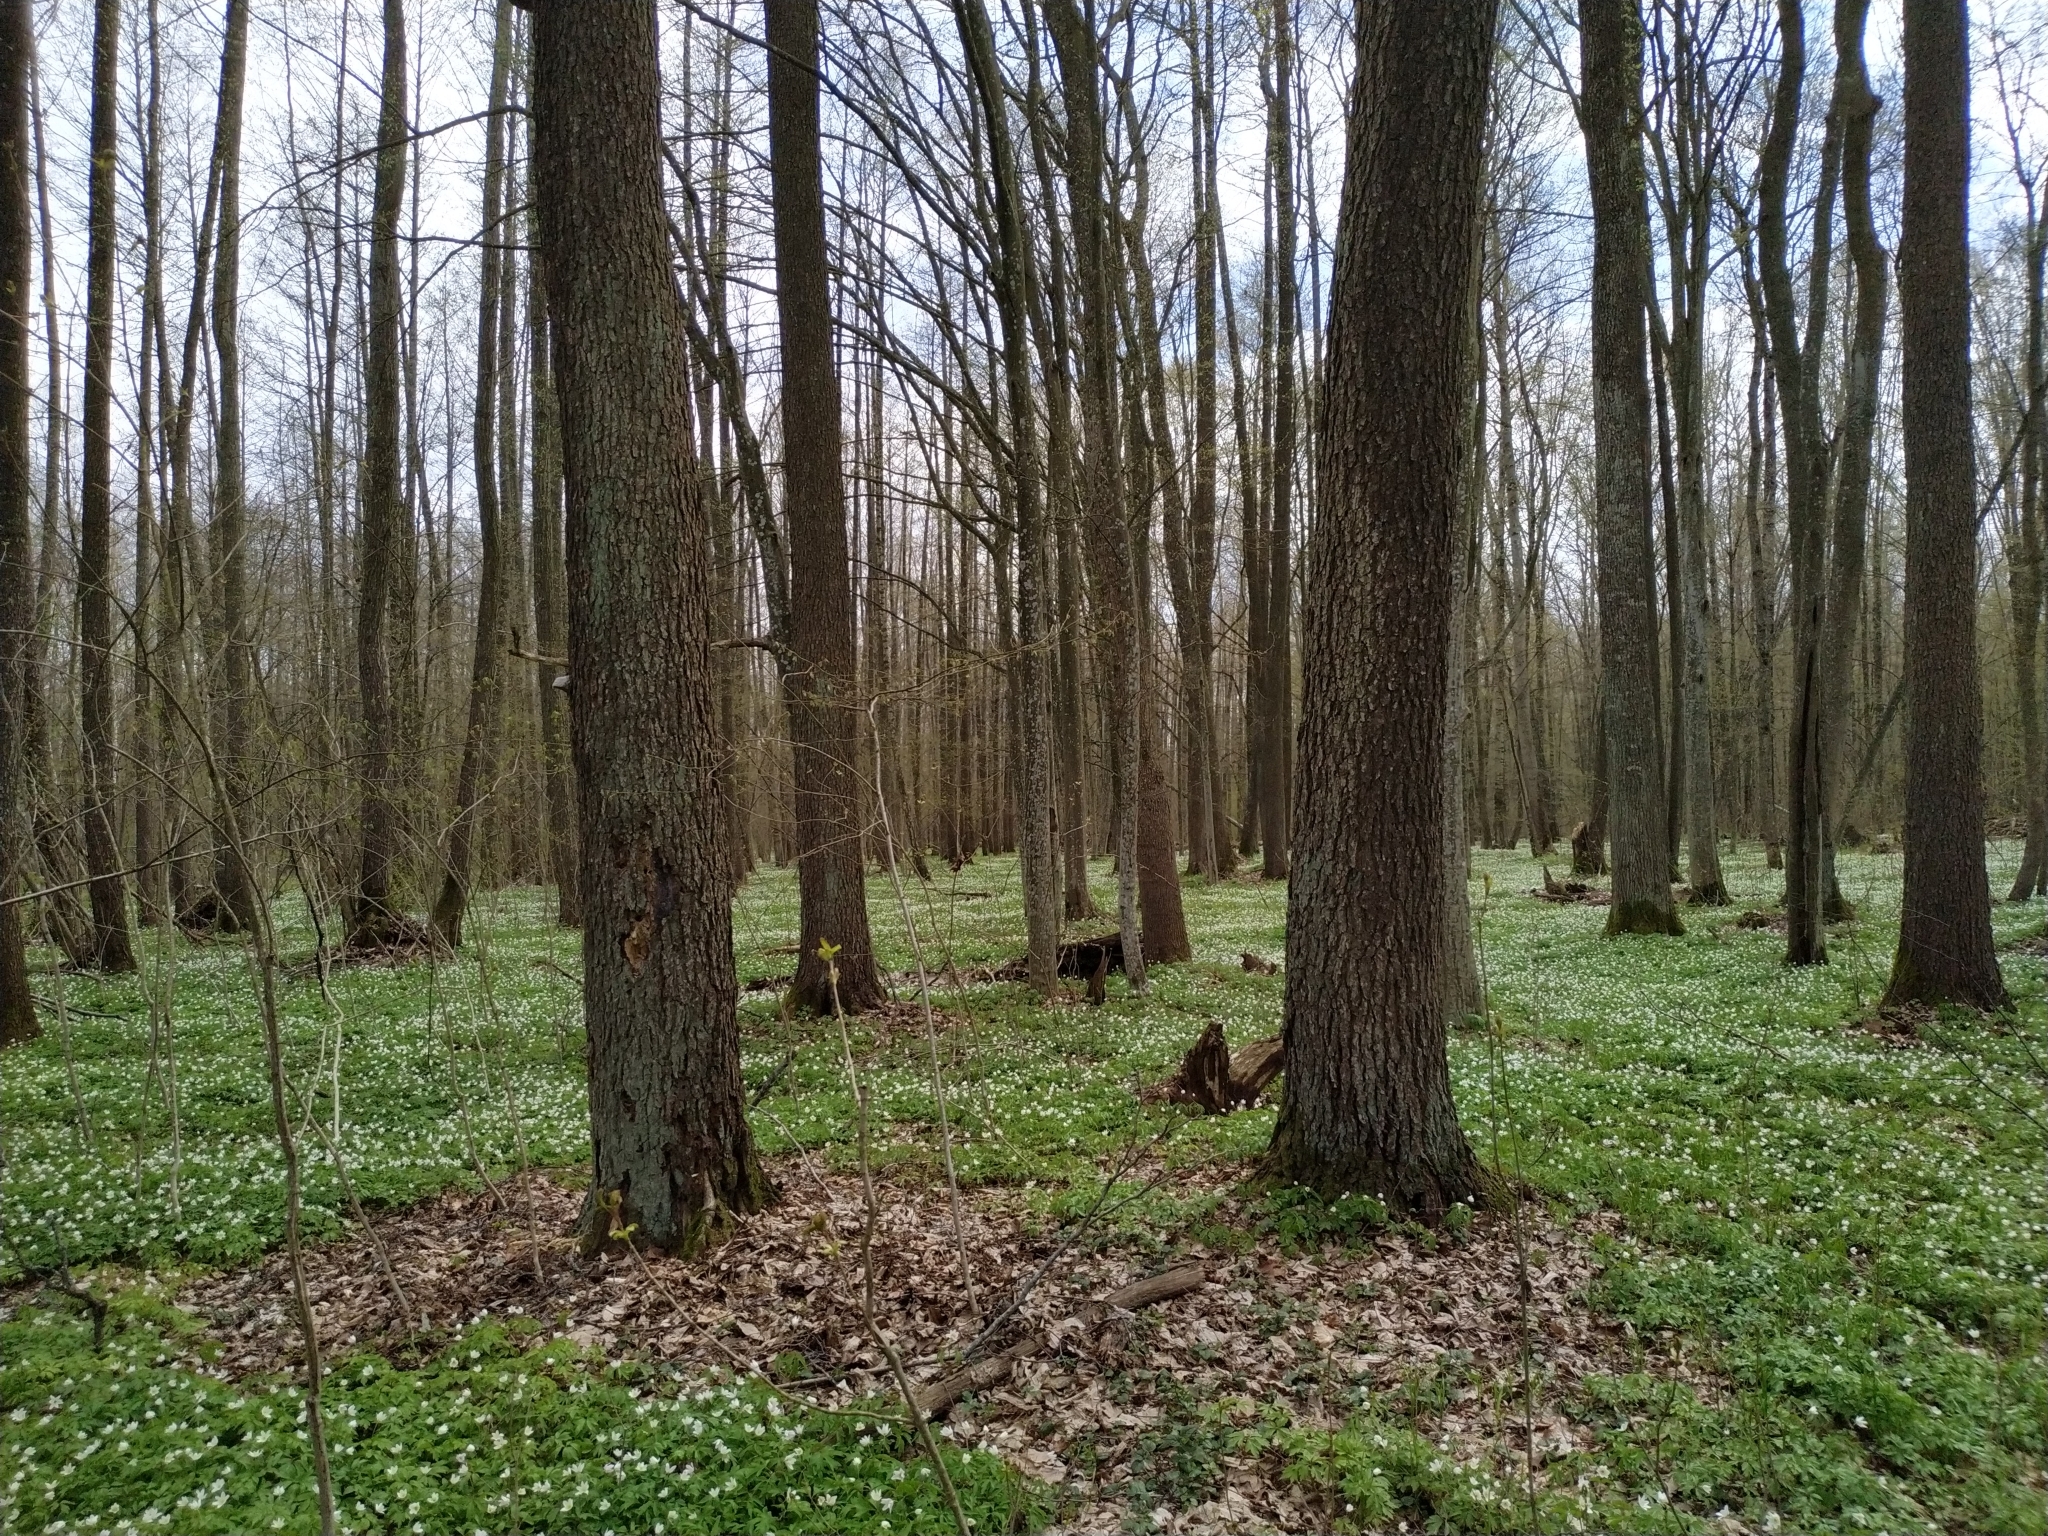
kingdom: Plantae
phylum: Tracheophyta
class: Magnoliopsida
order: Ranunculales
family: Ranunculaceae
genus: Anemone
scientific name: Anemone nemorosa
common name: Wood anemone
